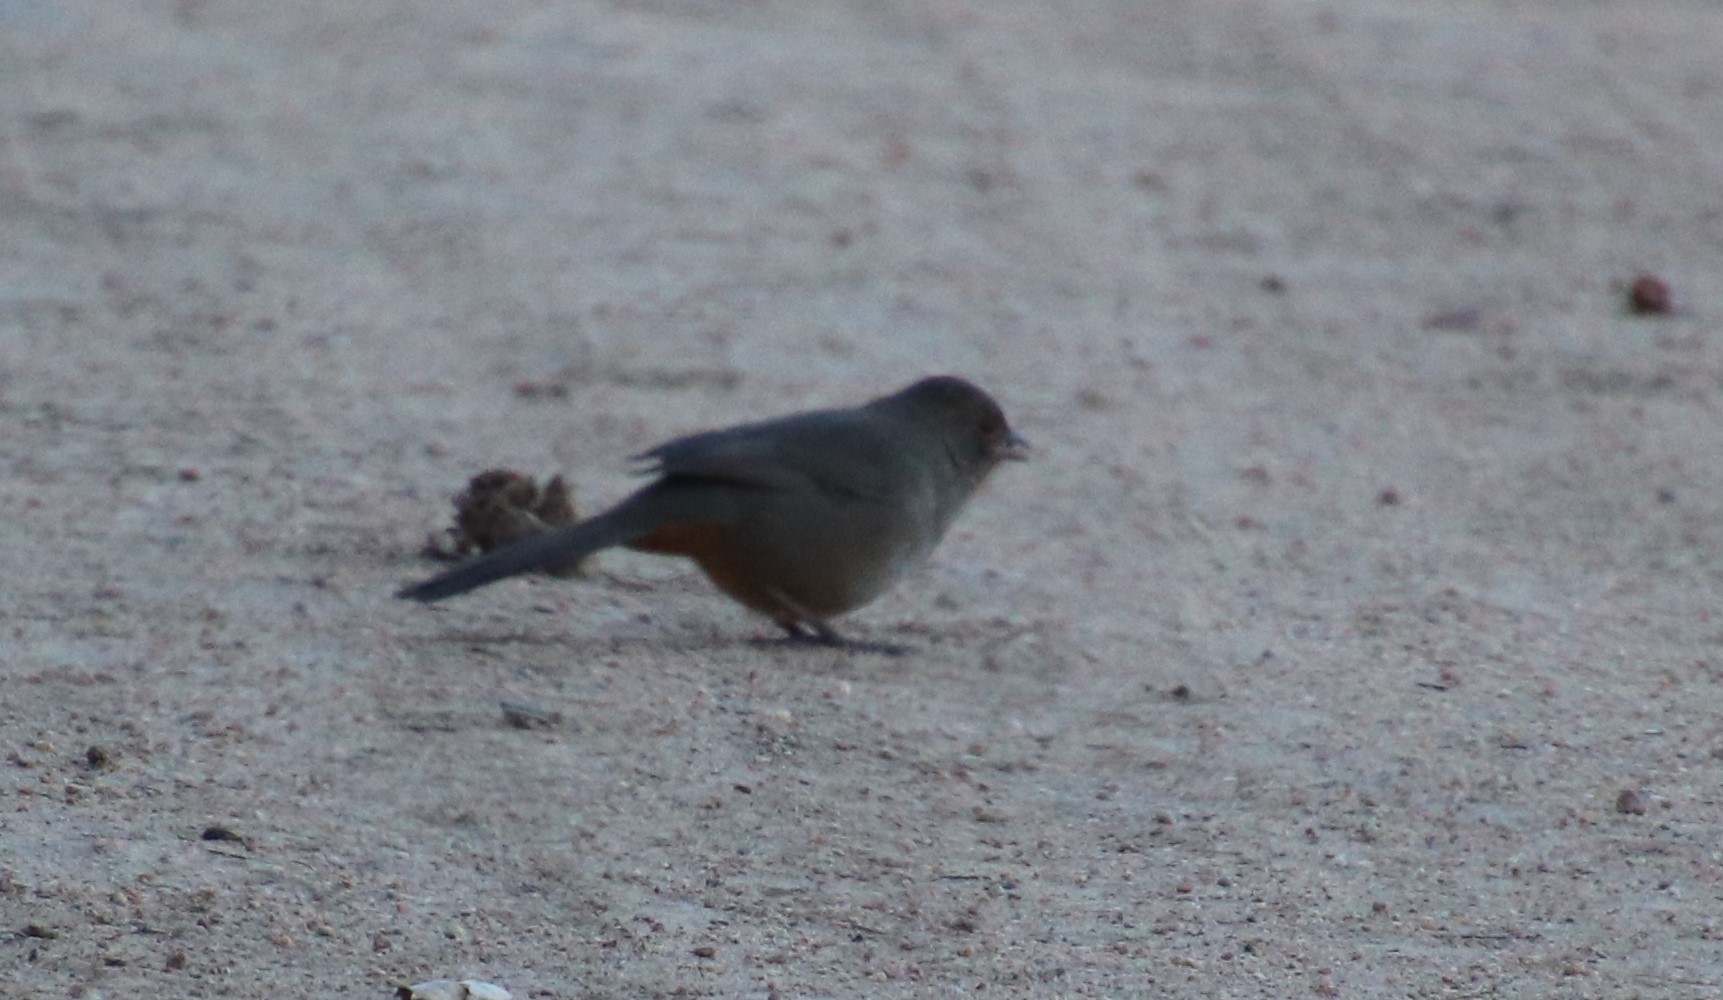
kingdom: Animalia
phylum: Chordata
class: Aves
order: Passeriformes
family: Passerellidae
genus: Melozone
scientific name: Melozone crissalis
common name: California towhee
